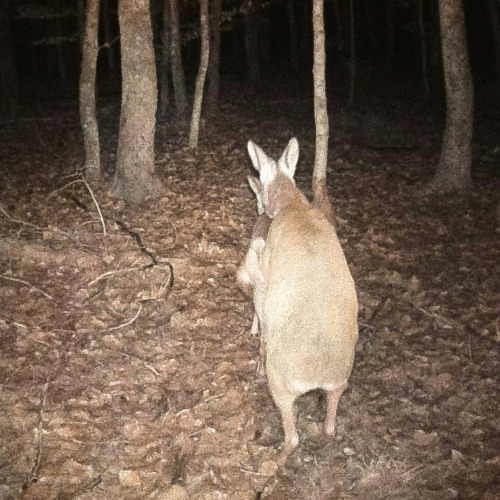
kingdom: Animalia
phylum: Chordata
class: Mammalia
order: Artiodactyla
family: Cervidae
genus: Capreolus
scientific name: Capreolus capreolus
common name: Western roe deer
